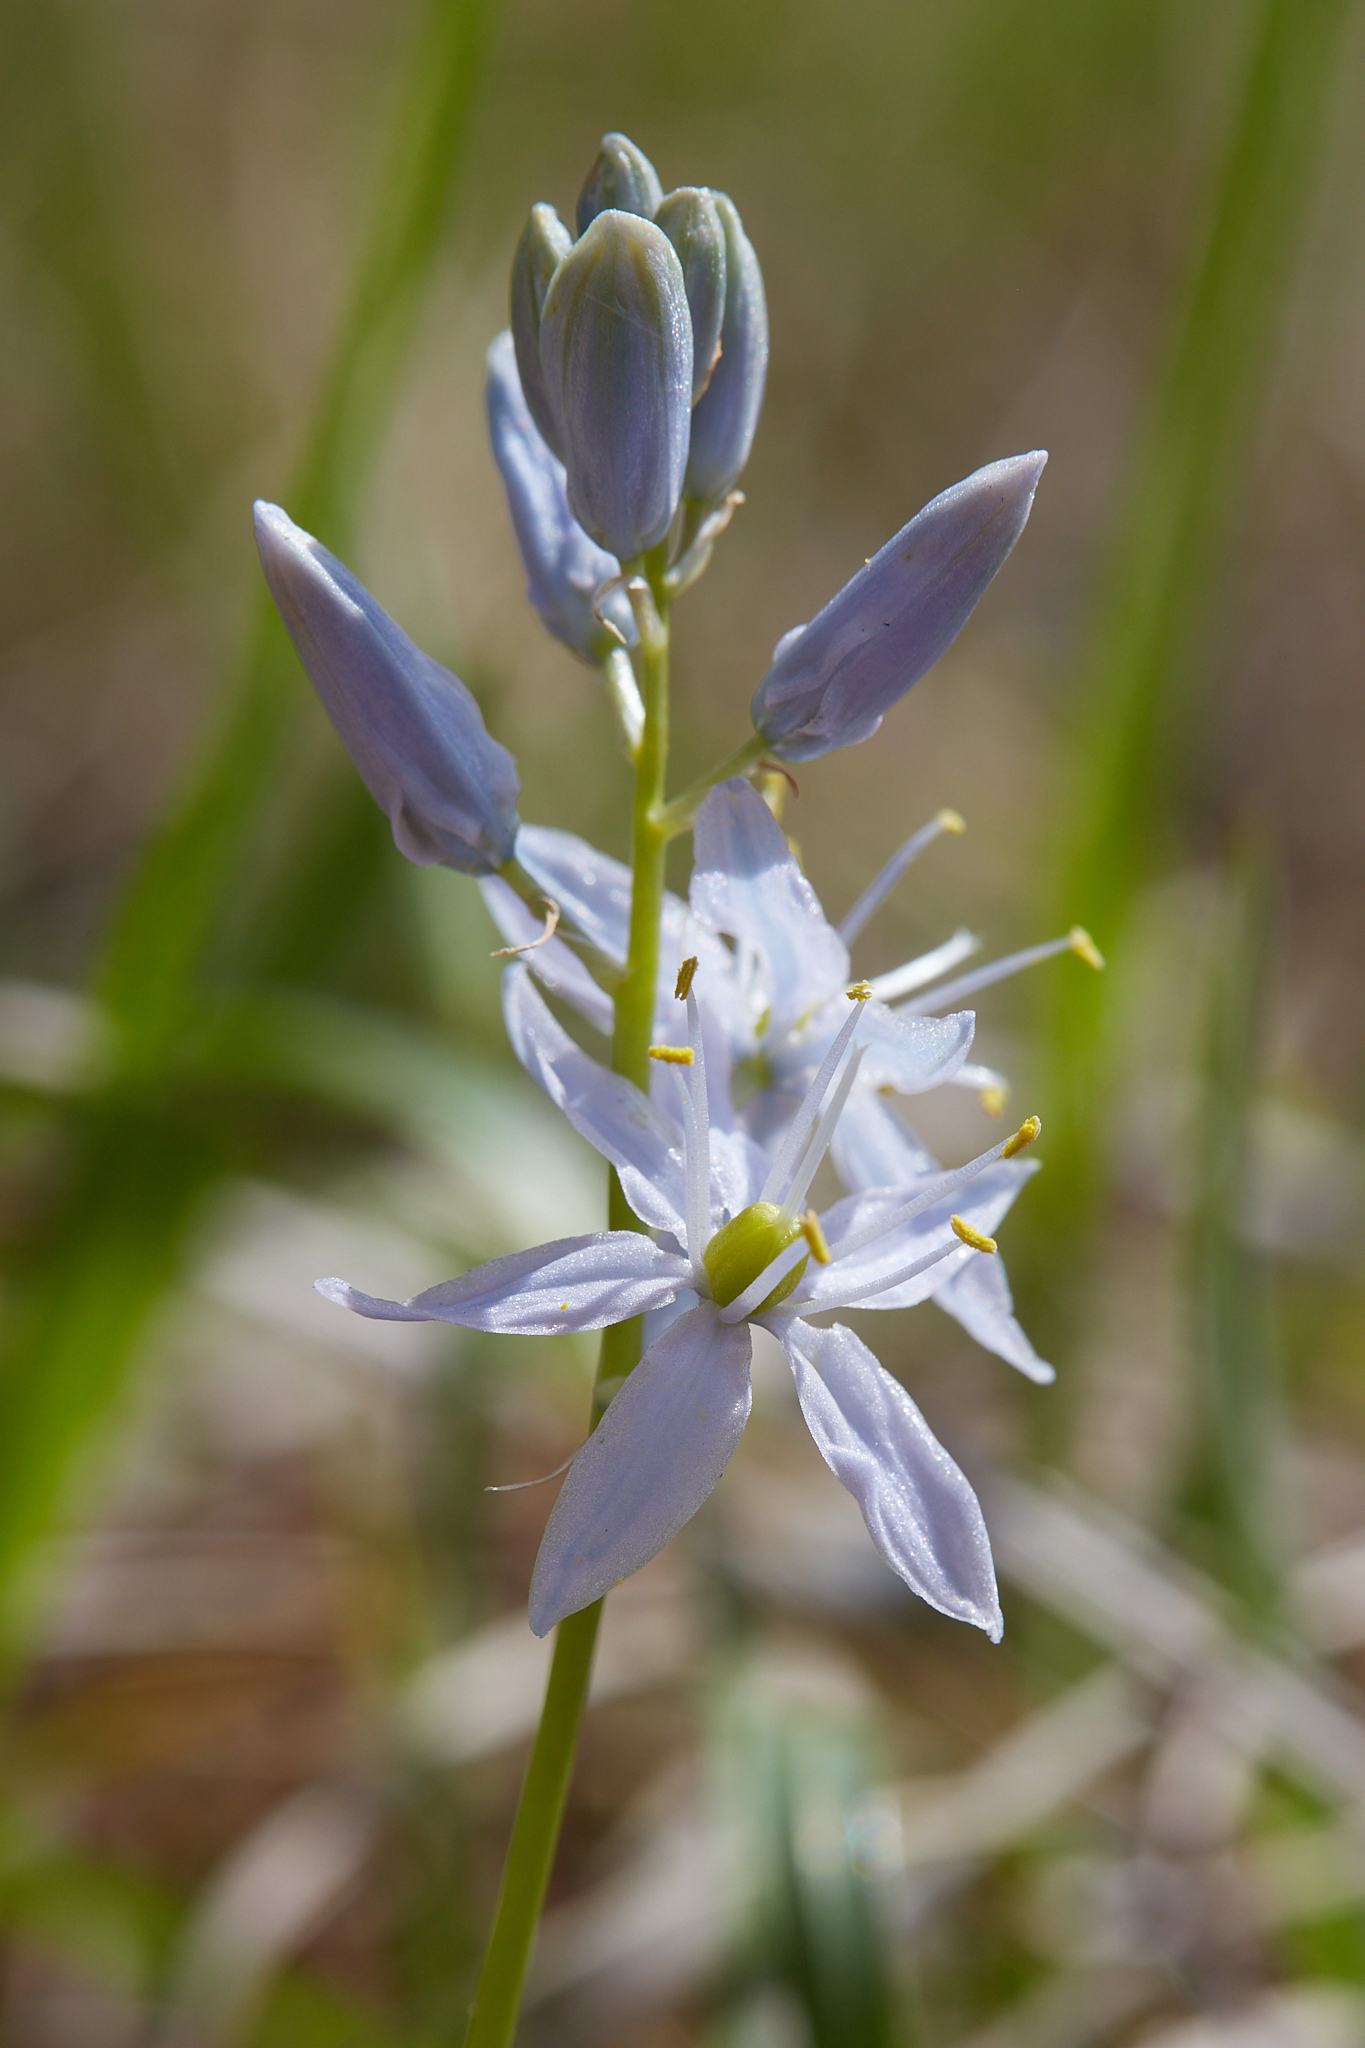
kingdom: Plantae
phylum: Tracheophyta
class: Liliopsida
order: Asparagales
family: Asparagaceae
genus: Camassia
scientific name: Camassia scilloides
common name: Wild hyacinth
